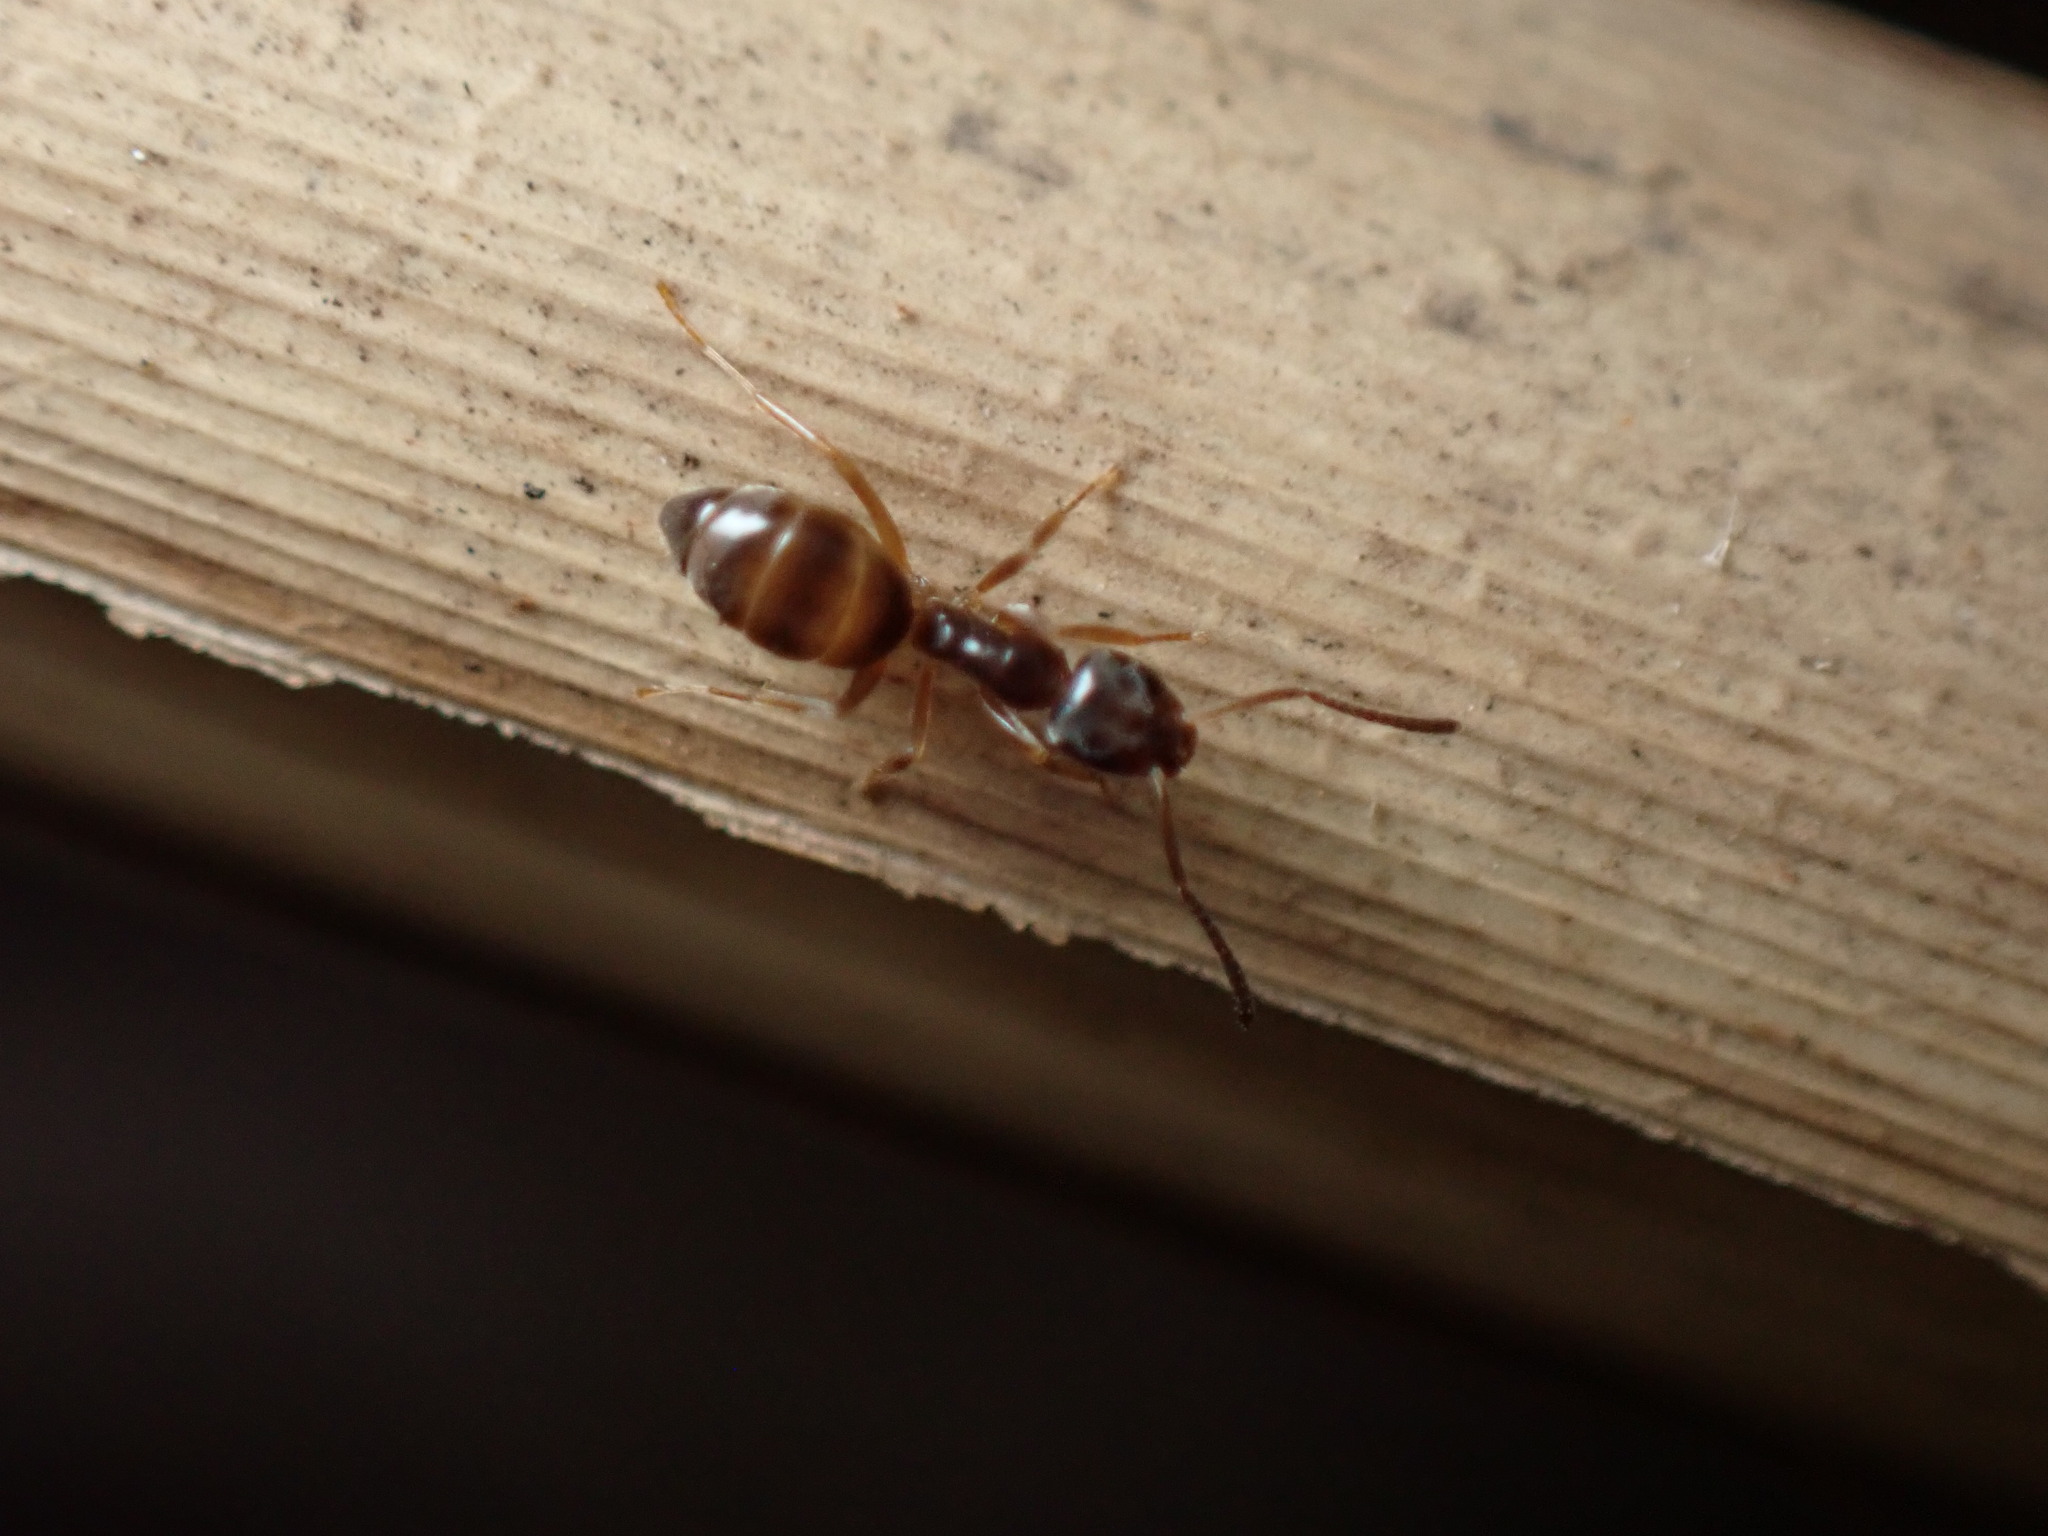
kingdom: Animalia
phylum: Arthropoda
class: Insecta
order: Hymenoptera
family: Formicidae
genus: Tapinoma
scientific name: Tapinoma sessile
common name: Odorous house ant
